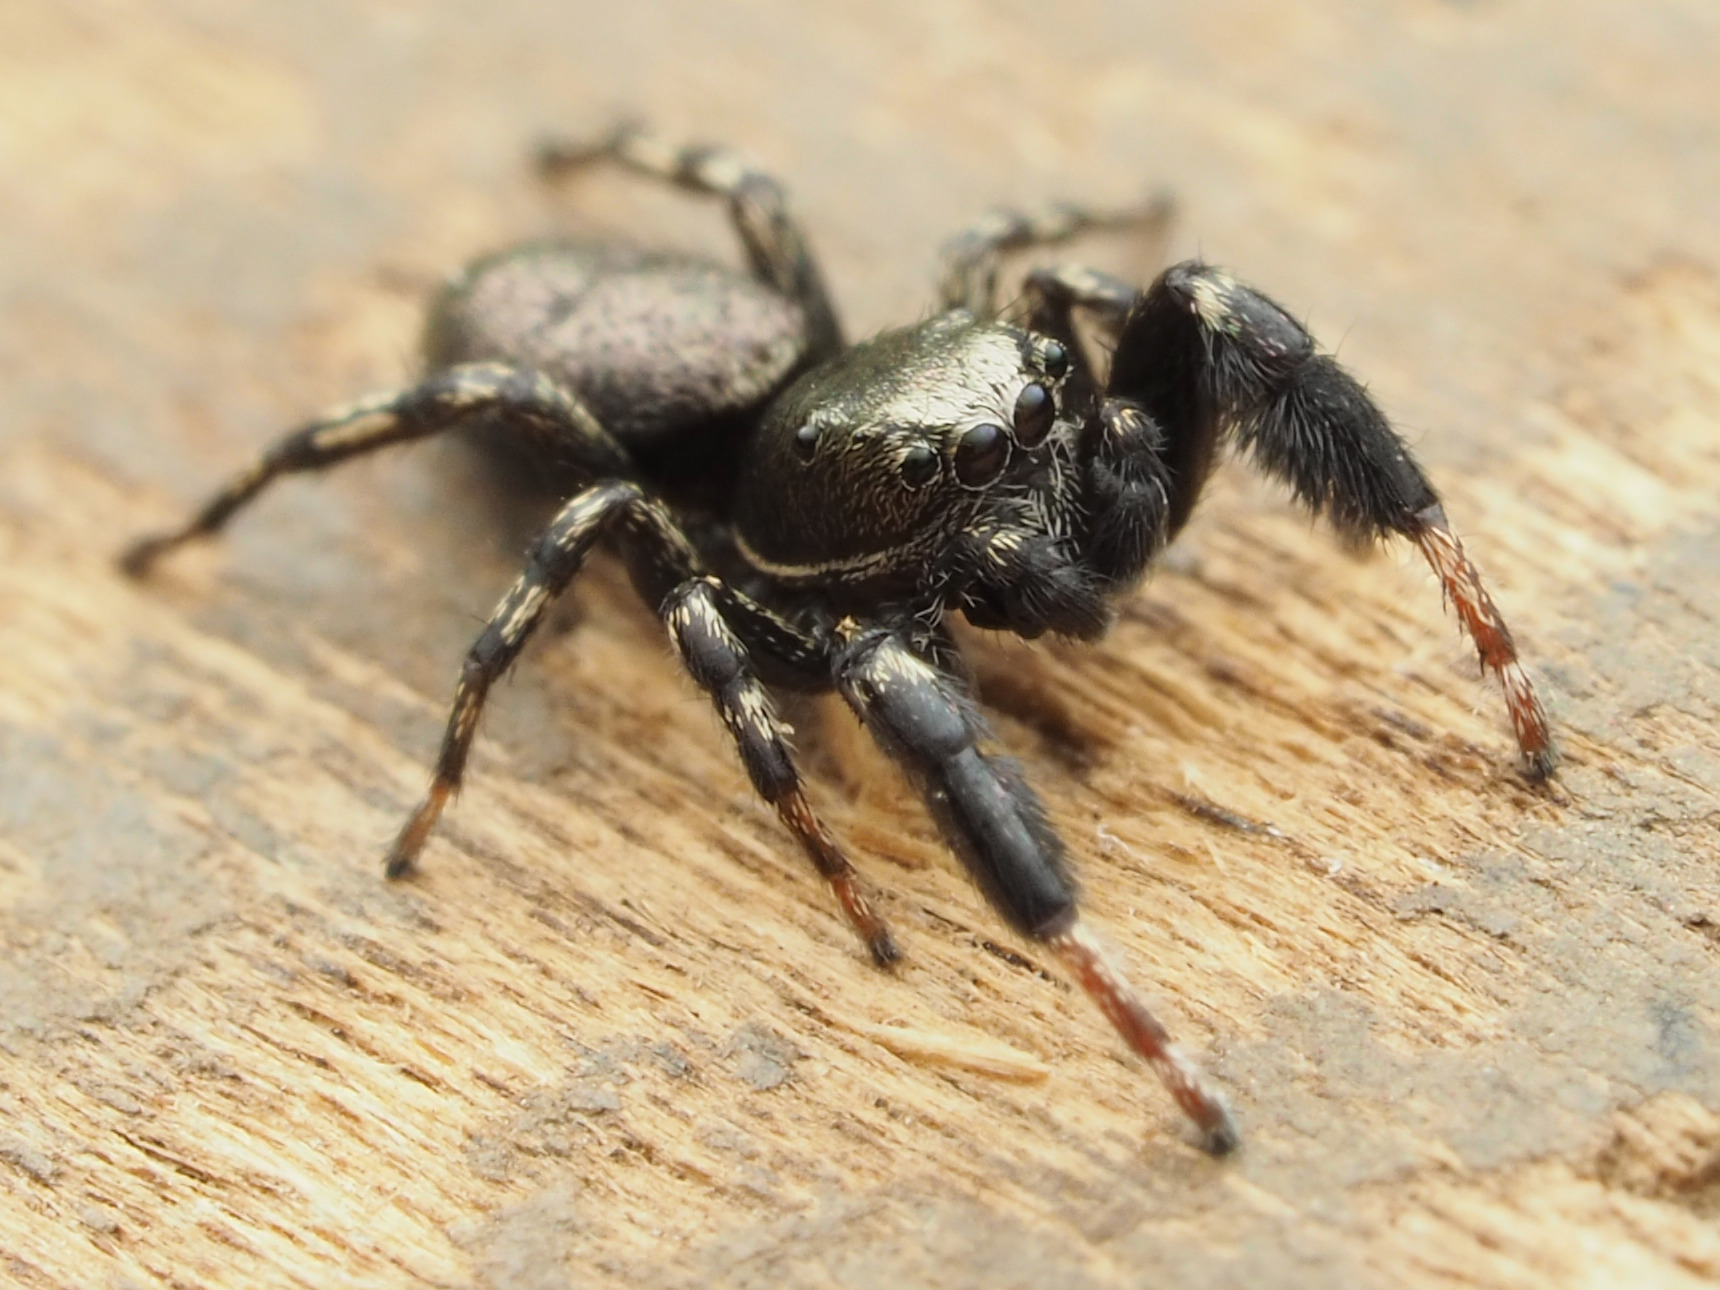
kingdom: Animalia
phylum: Arthropoda
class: Arachnida
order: Araneae
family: Salticidae
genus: Tutelina
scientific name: Tutelina harti
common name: Hart's jumping spider
